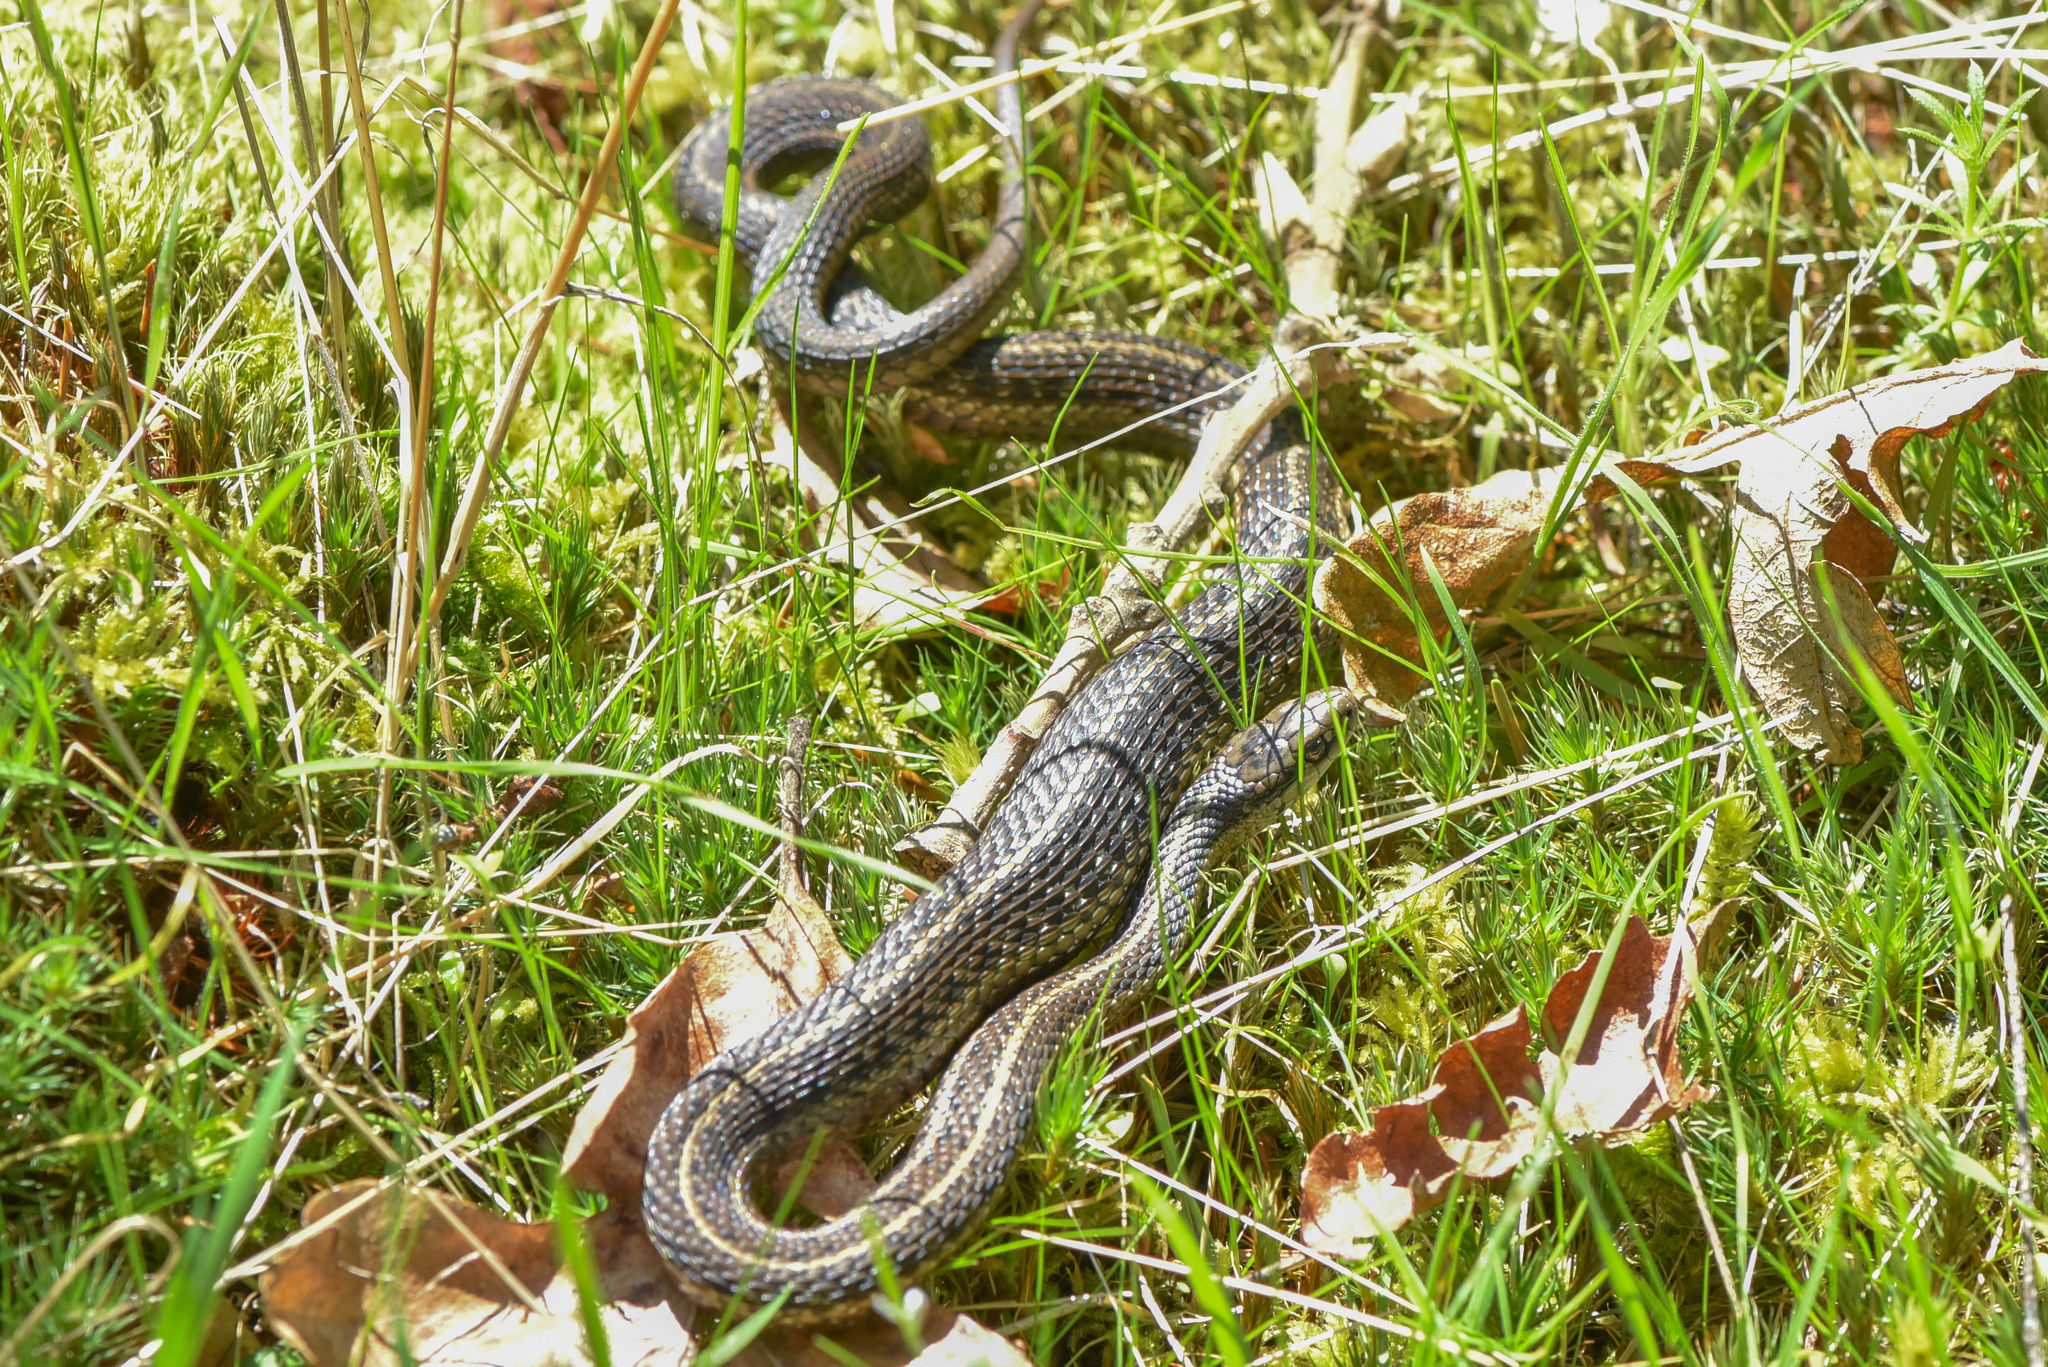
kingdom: Animalia
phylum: Chordata
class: Squamata
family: Colubridae
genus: Thamnophis
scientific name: Thamnophis ordinoides
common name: Northwestern garter snake
